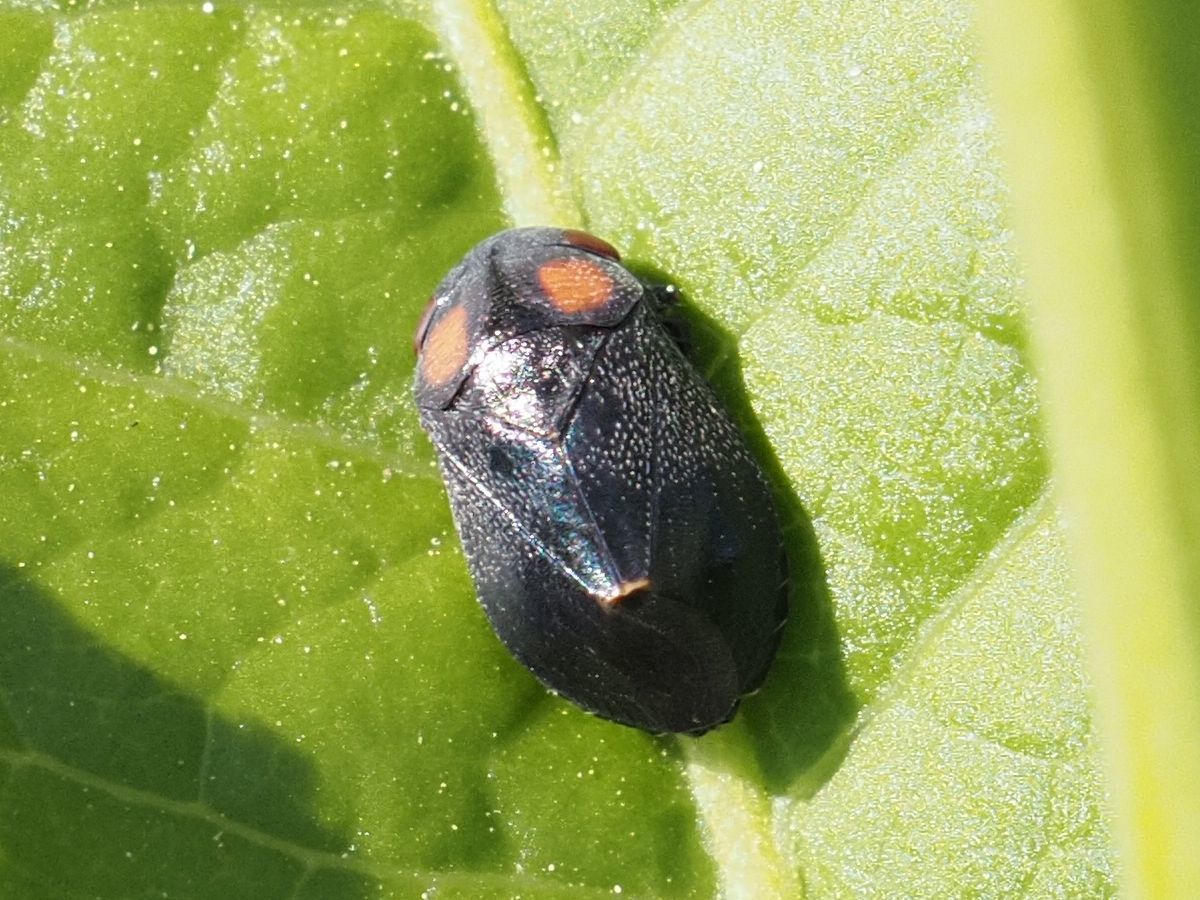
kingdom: Animalia
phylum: Arthropoda
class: Insecta
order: Hemiptera
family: Cicadellidae
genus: Penthimia
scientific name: Penthimia nigra
